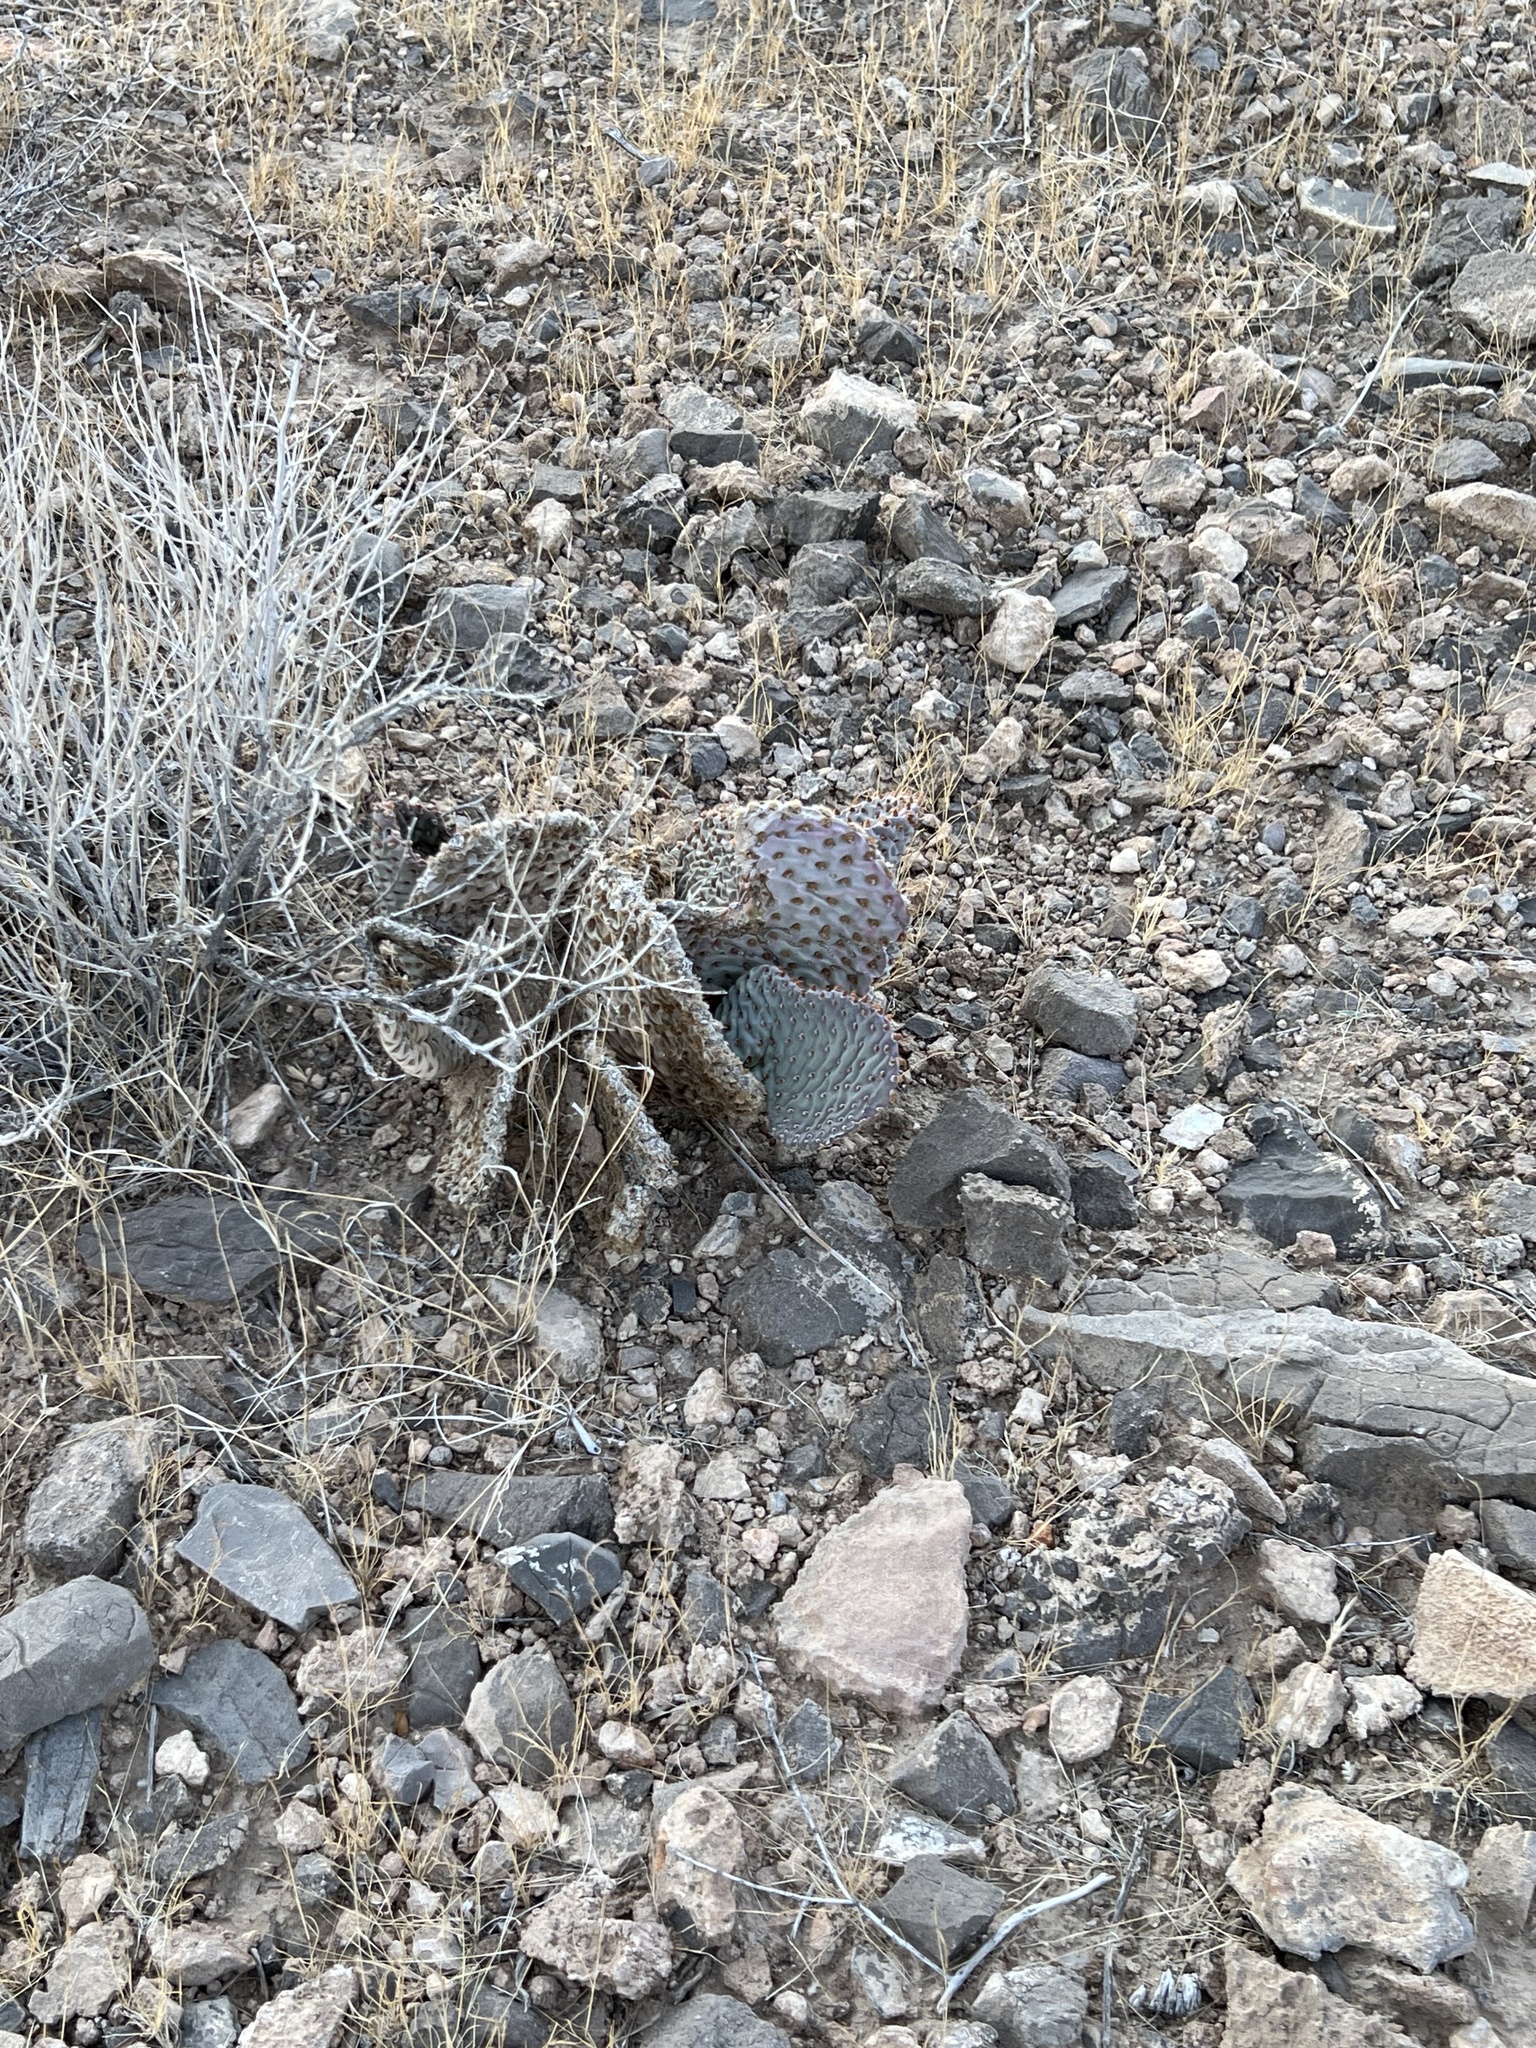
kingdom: Plantae
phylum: Tracheophyta
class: Magnoliopsida
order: Caryophyllales
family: Cactaceae
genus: Opuntia
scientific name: Opuntia basilaris
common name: Beavertail prickly-pear
